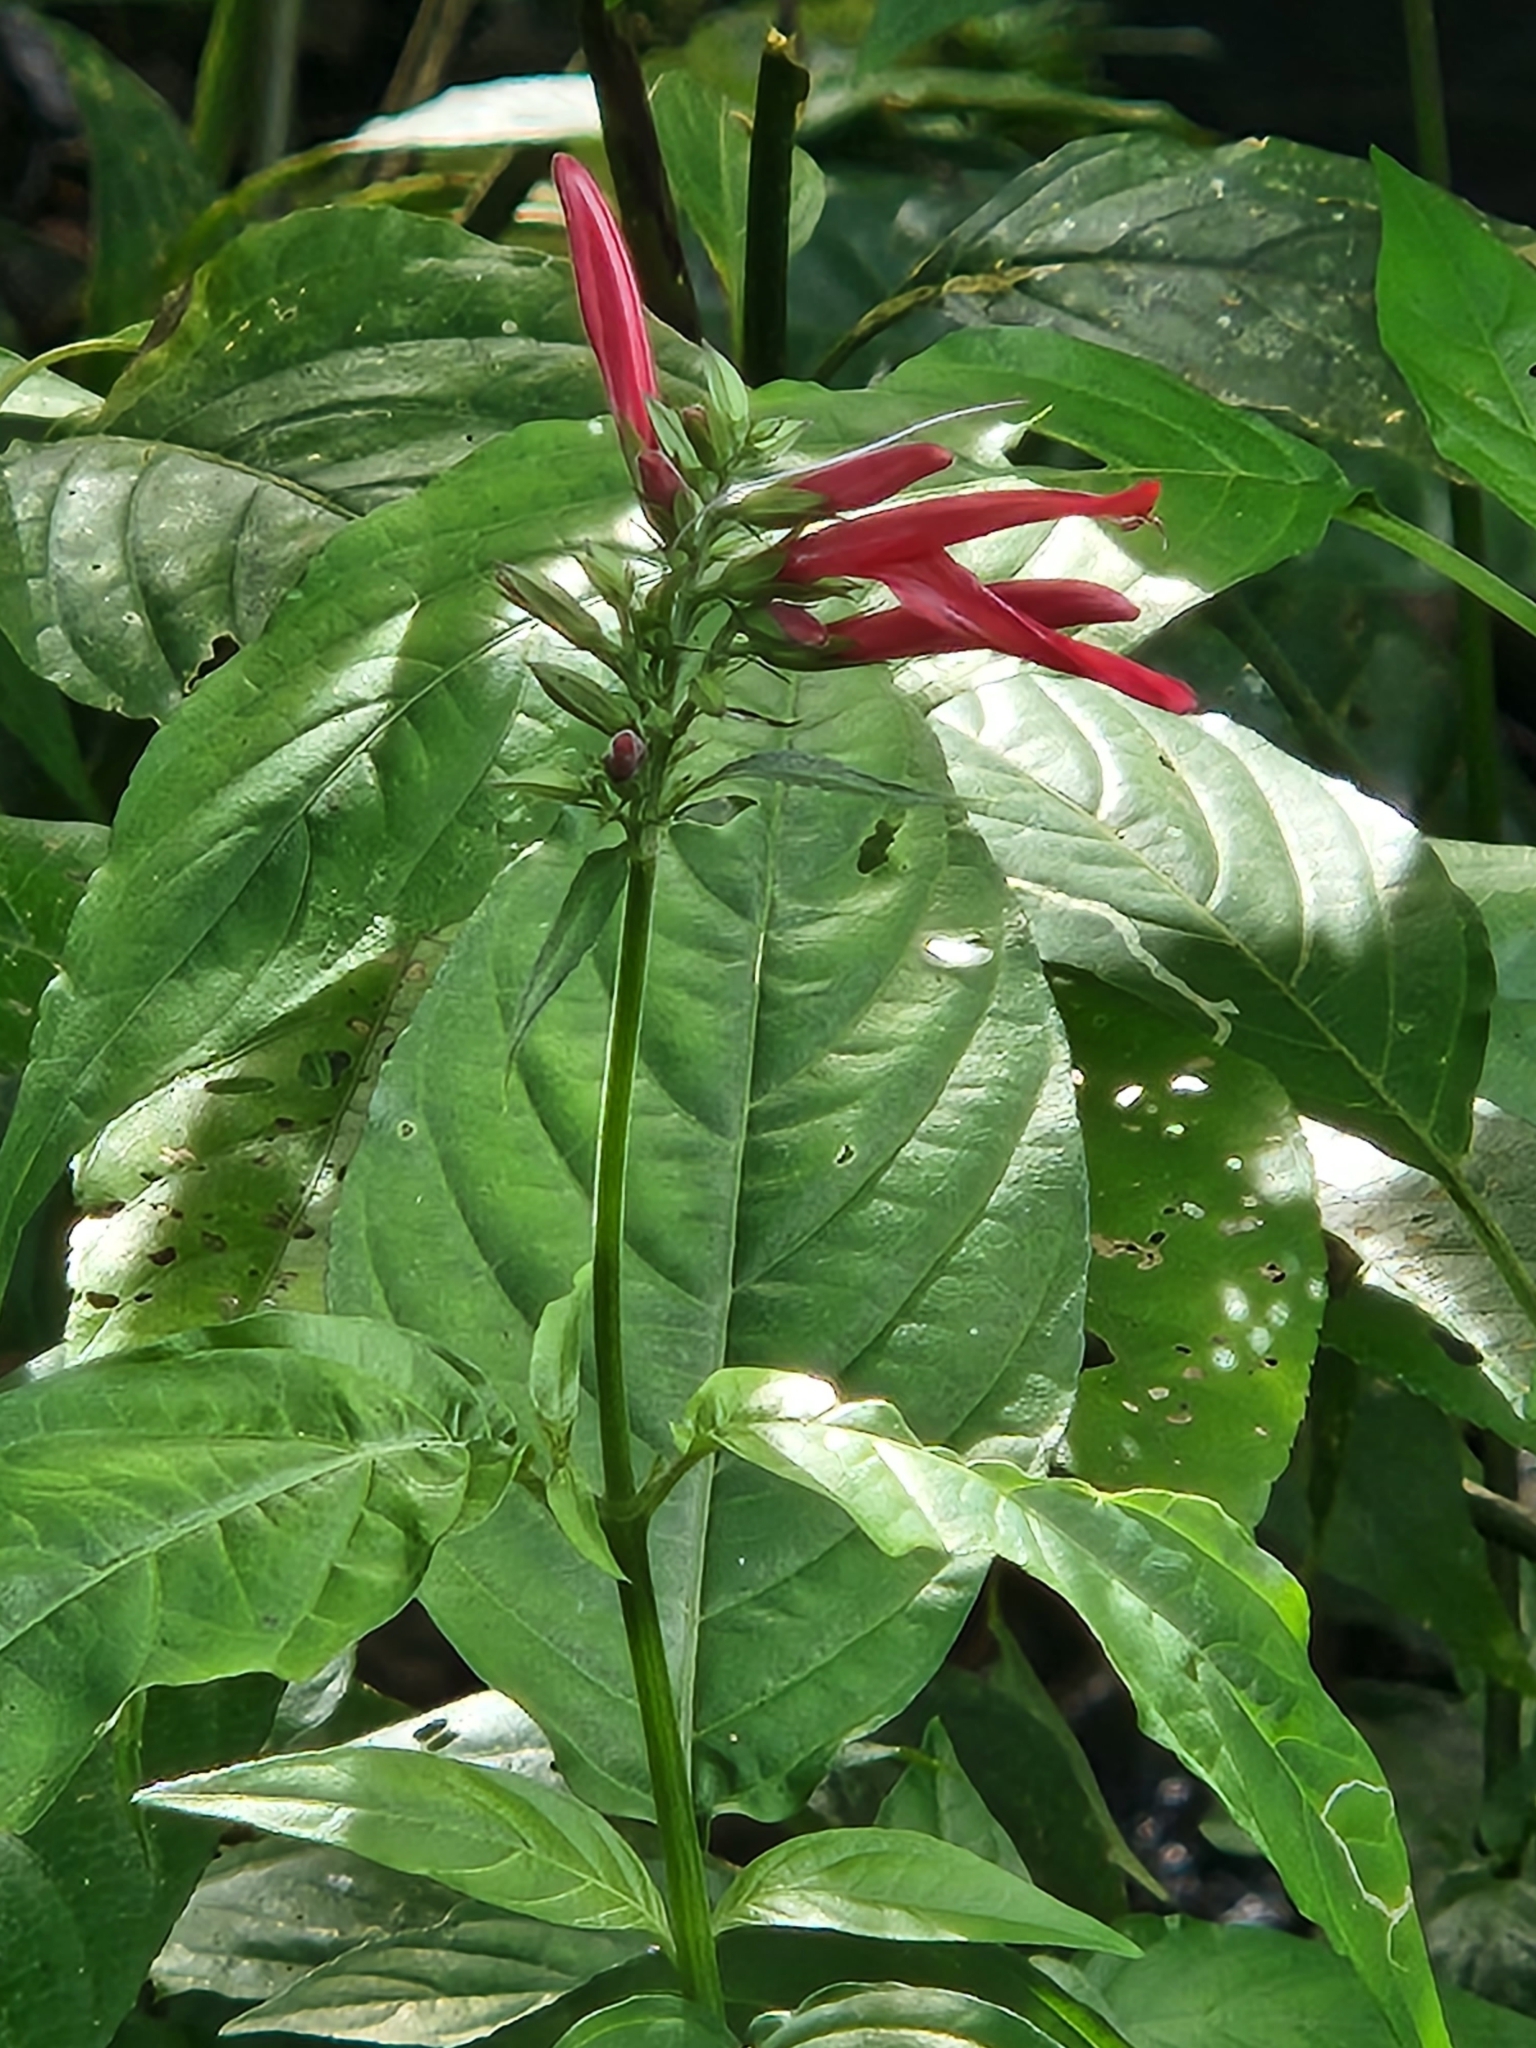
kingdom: Plantae
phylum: Tracheophyta
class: Magnoliopsida
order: Lamiales
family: Acanthaceae
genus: Dianthera
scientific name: Dianthera secunda
